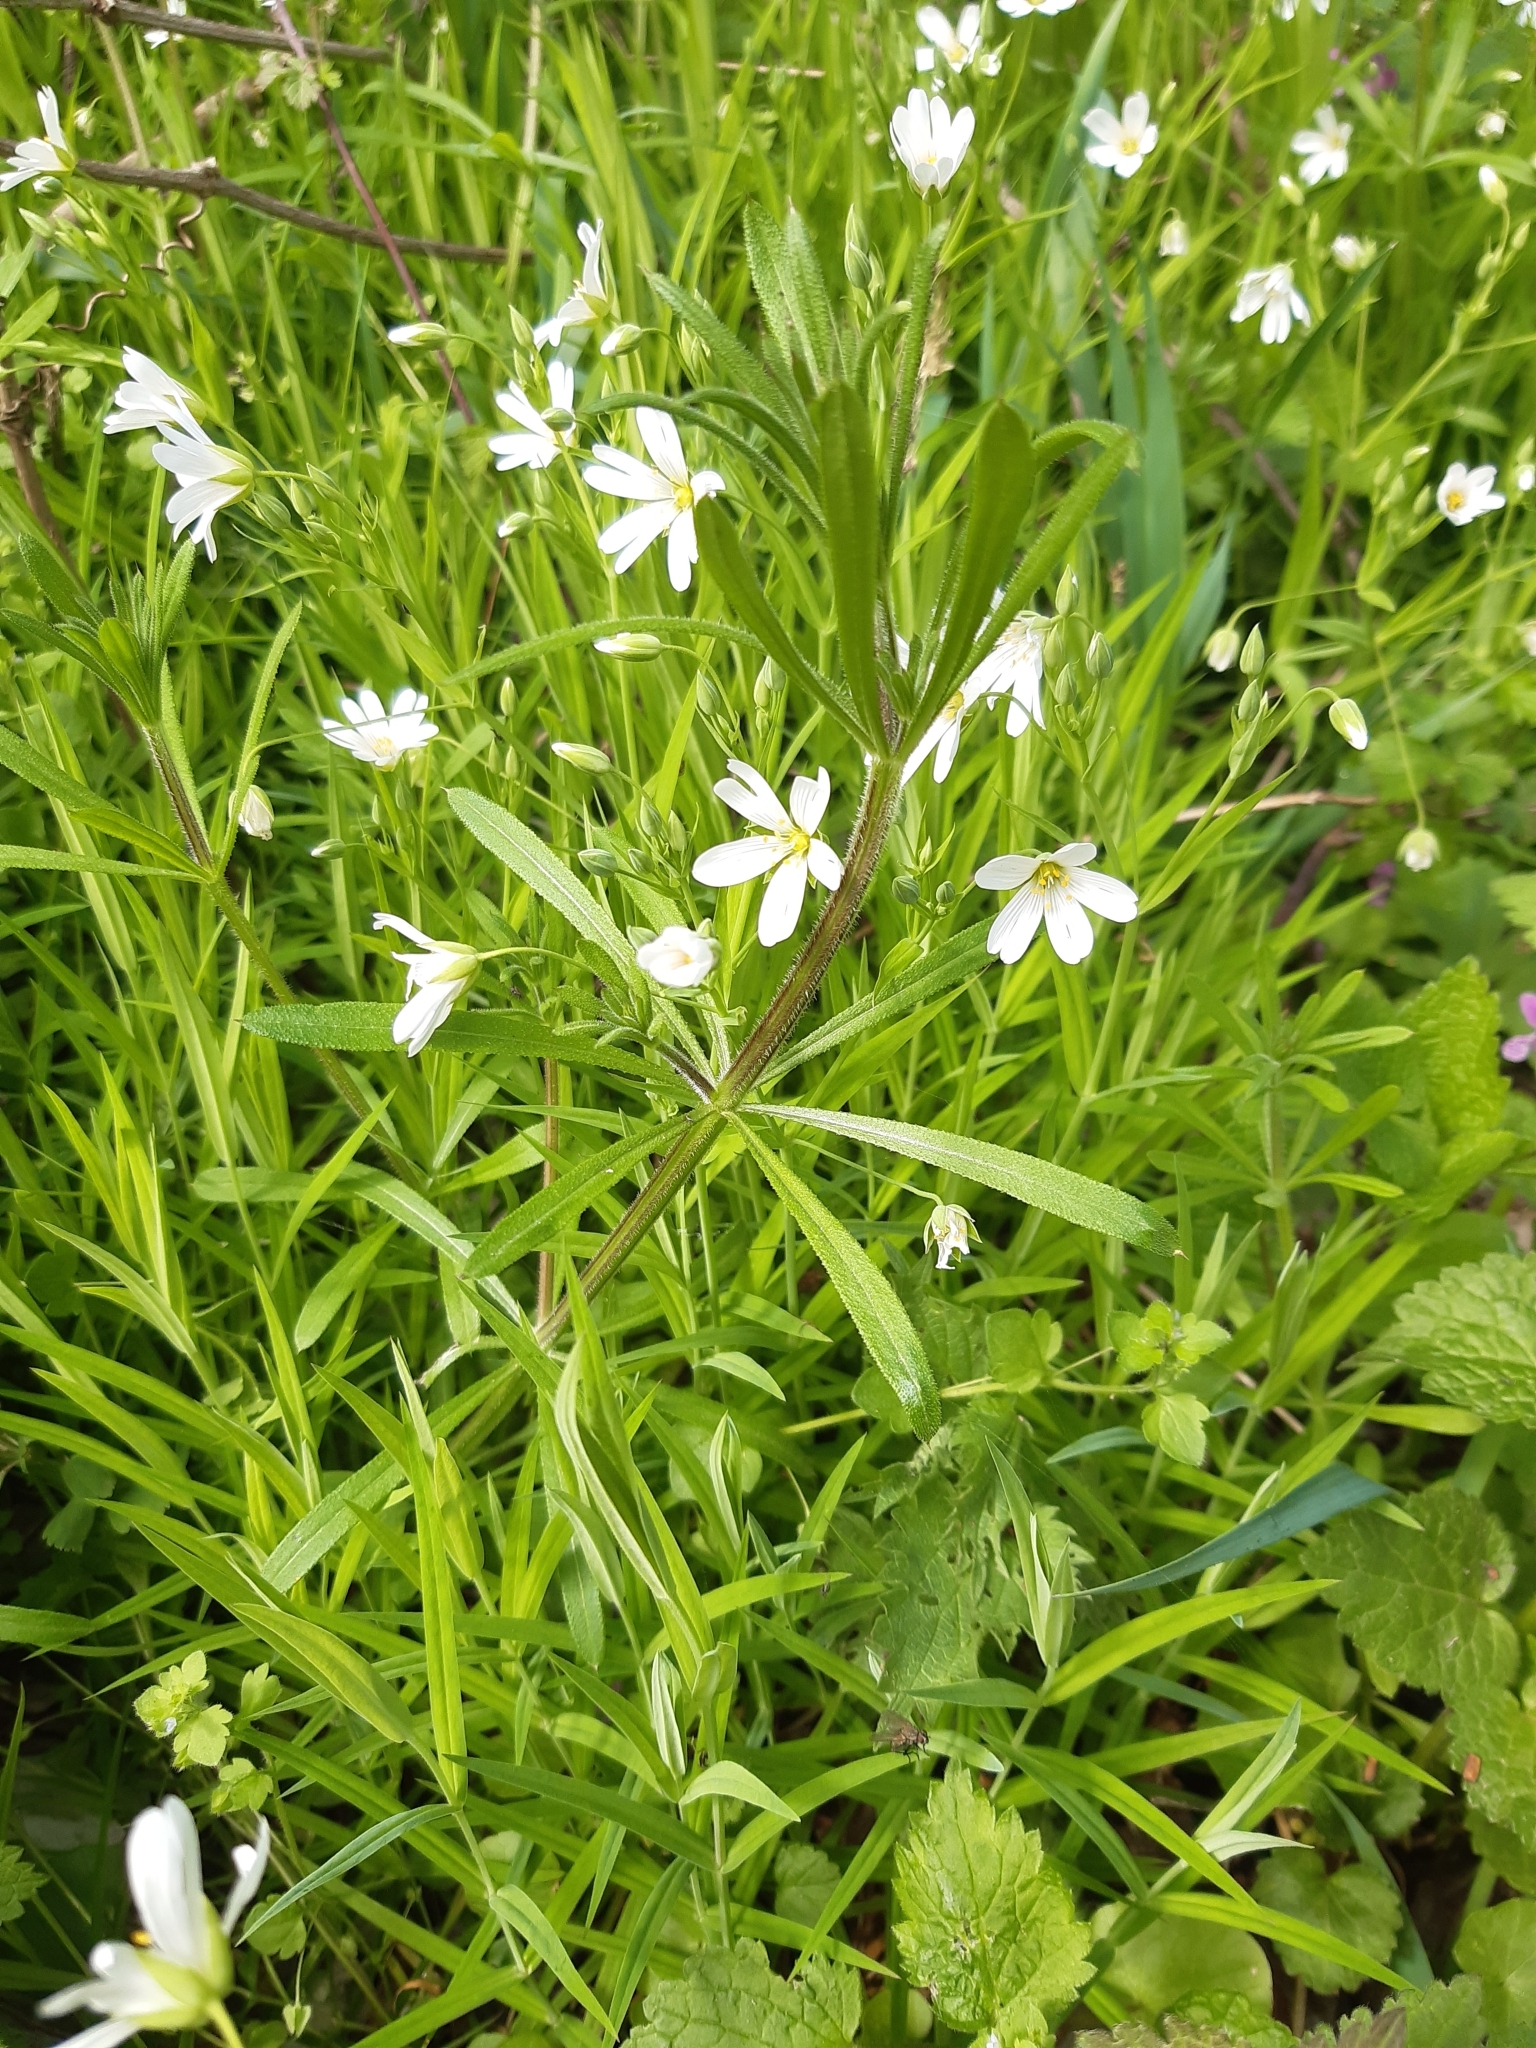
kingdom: Plantae
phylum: Tracheophyta
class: Magnoliopsida
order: Caryophyllales
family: Caryophyllaceae
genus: Rabelera
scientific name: Rabelera holostea
